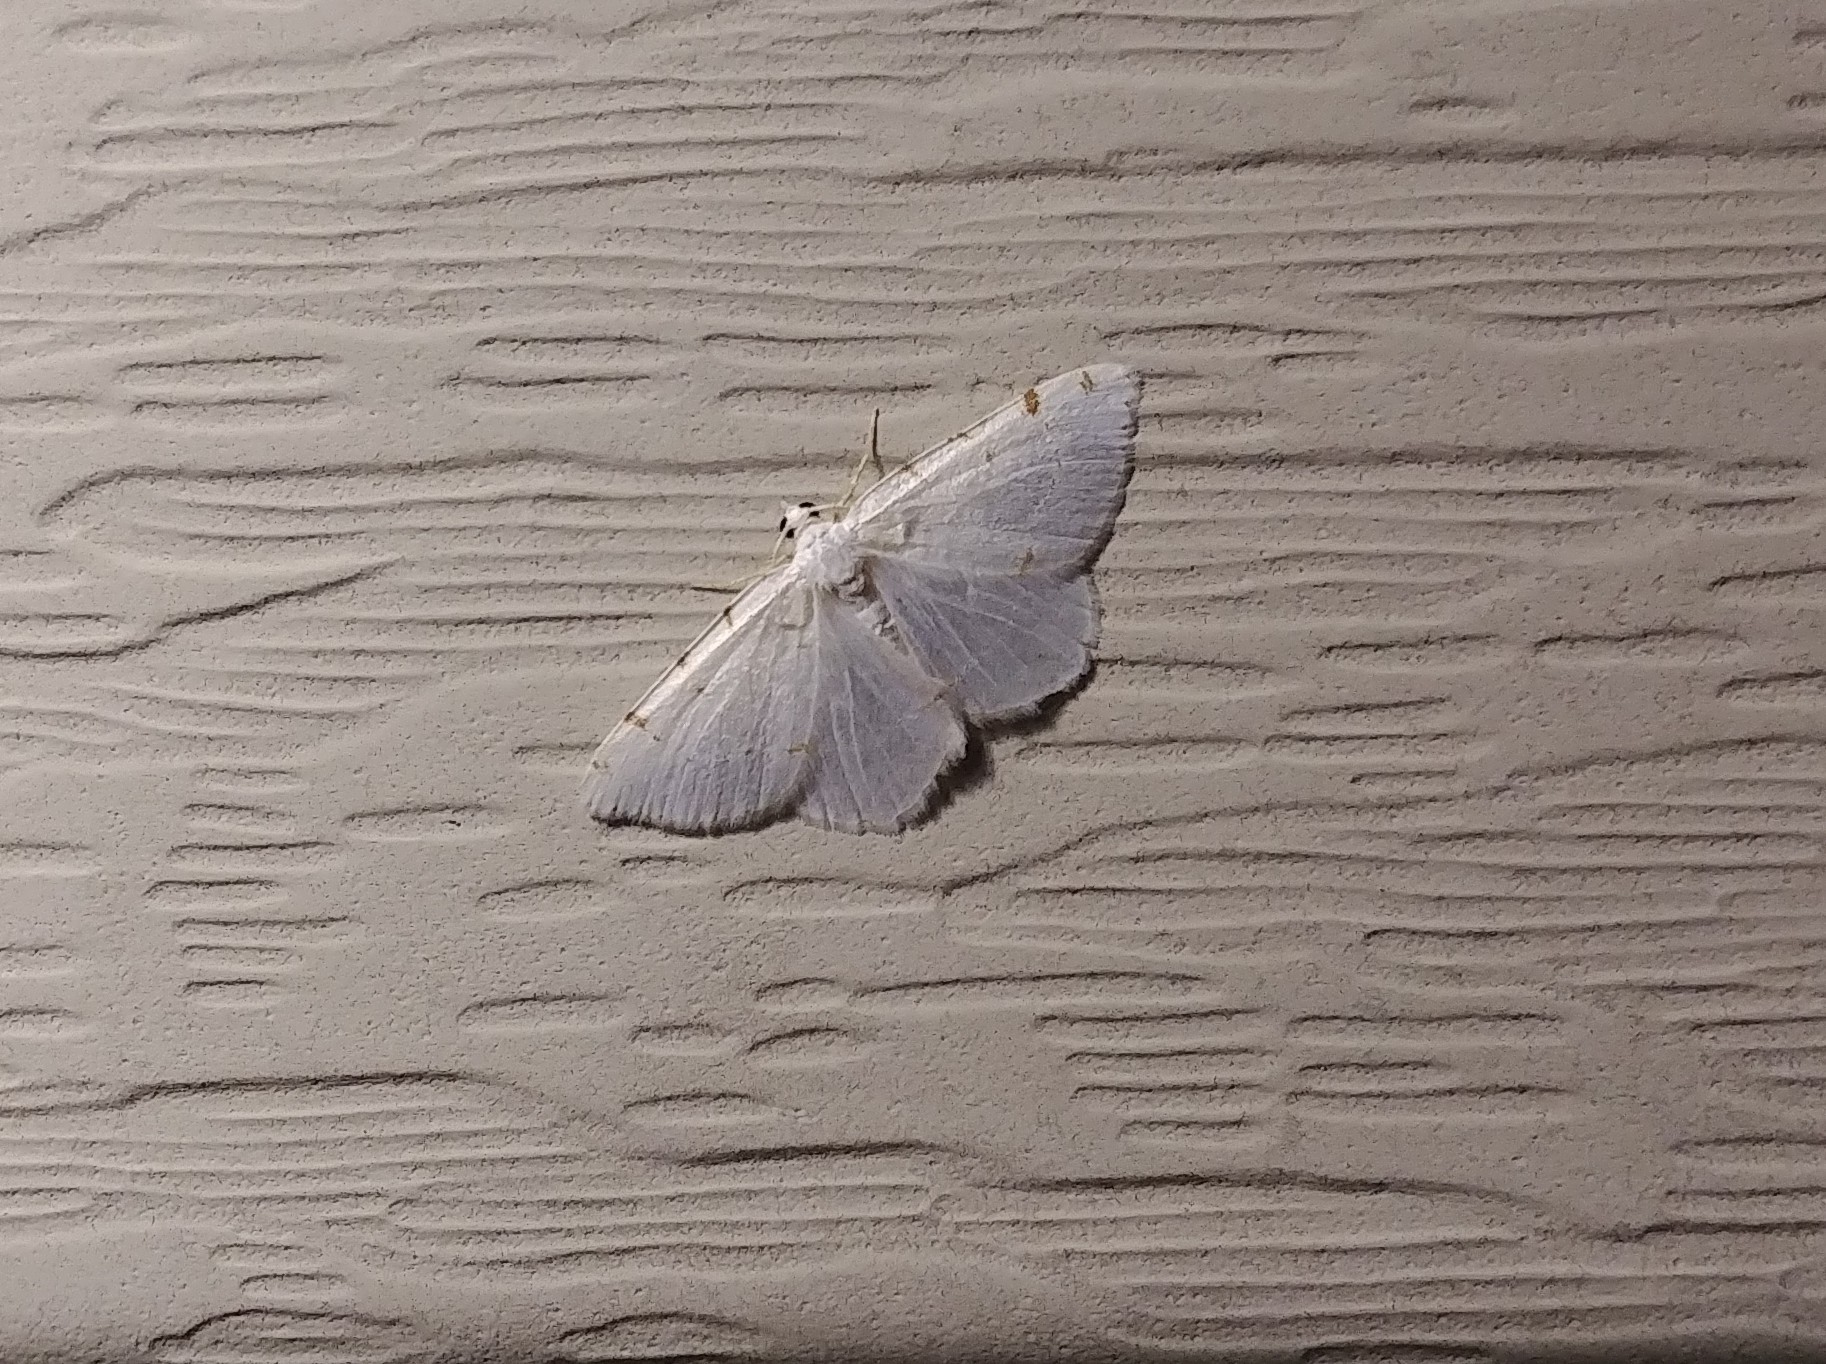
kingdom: Animalia
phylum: Arthropoda
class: Insecta
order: Lepidoptera
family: Geometridae
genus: Macaria
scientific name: Macaria pustularia
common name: Lesser maple spanworm moth
